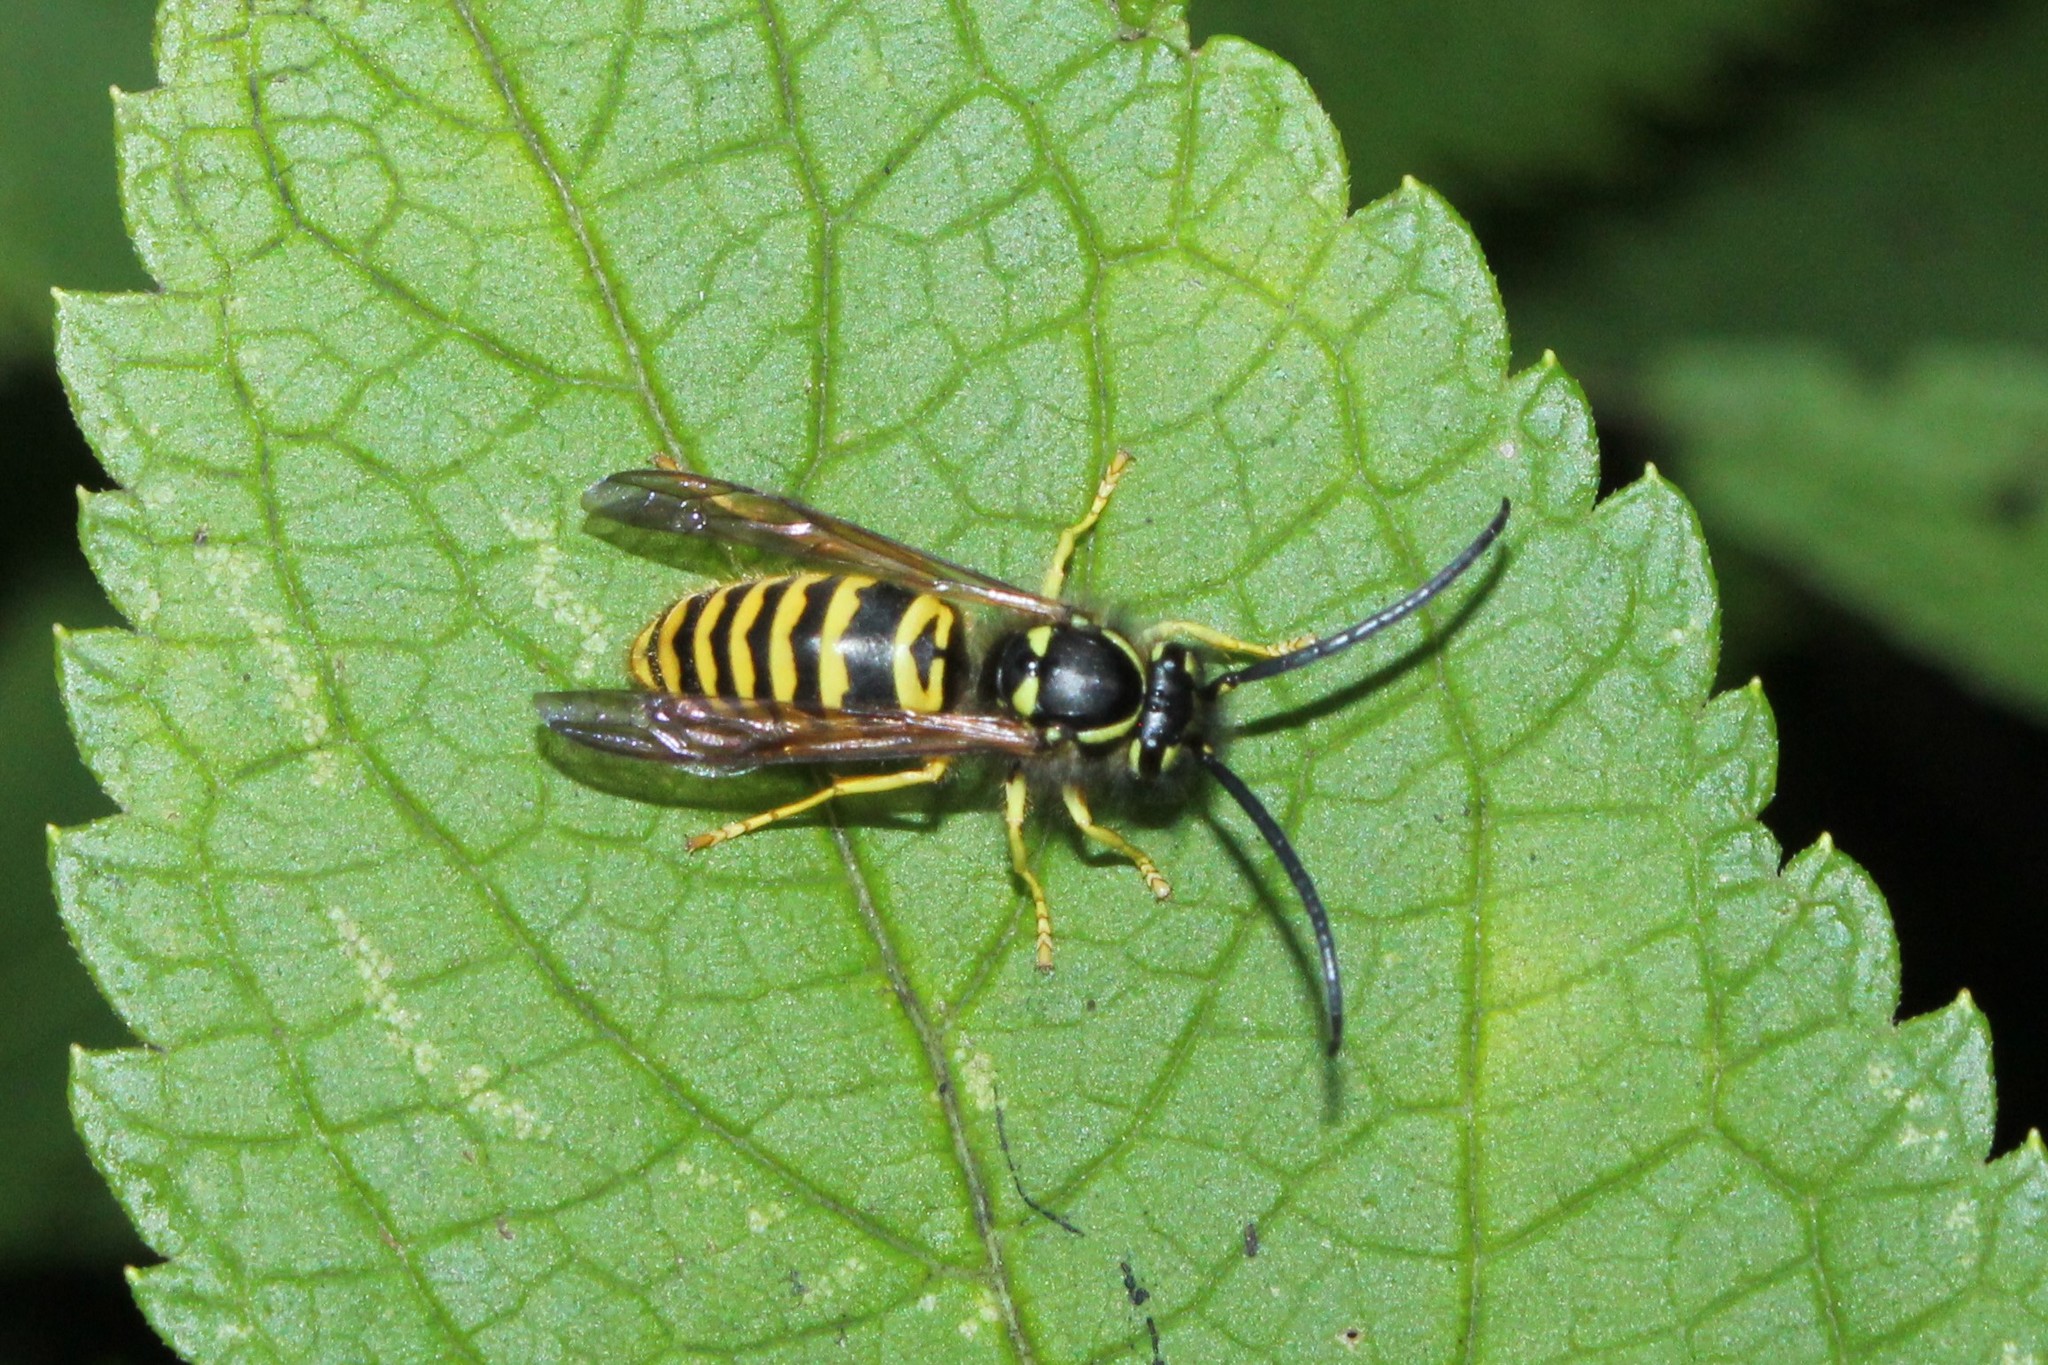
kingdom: Animalia
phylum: Arthropoda
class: Insecta
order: Hymenoptera
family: Vespidae
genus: Vespula
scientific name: Vespula maculifrons
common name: Eastern yellowjacket
